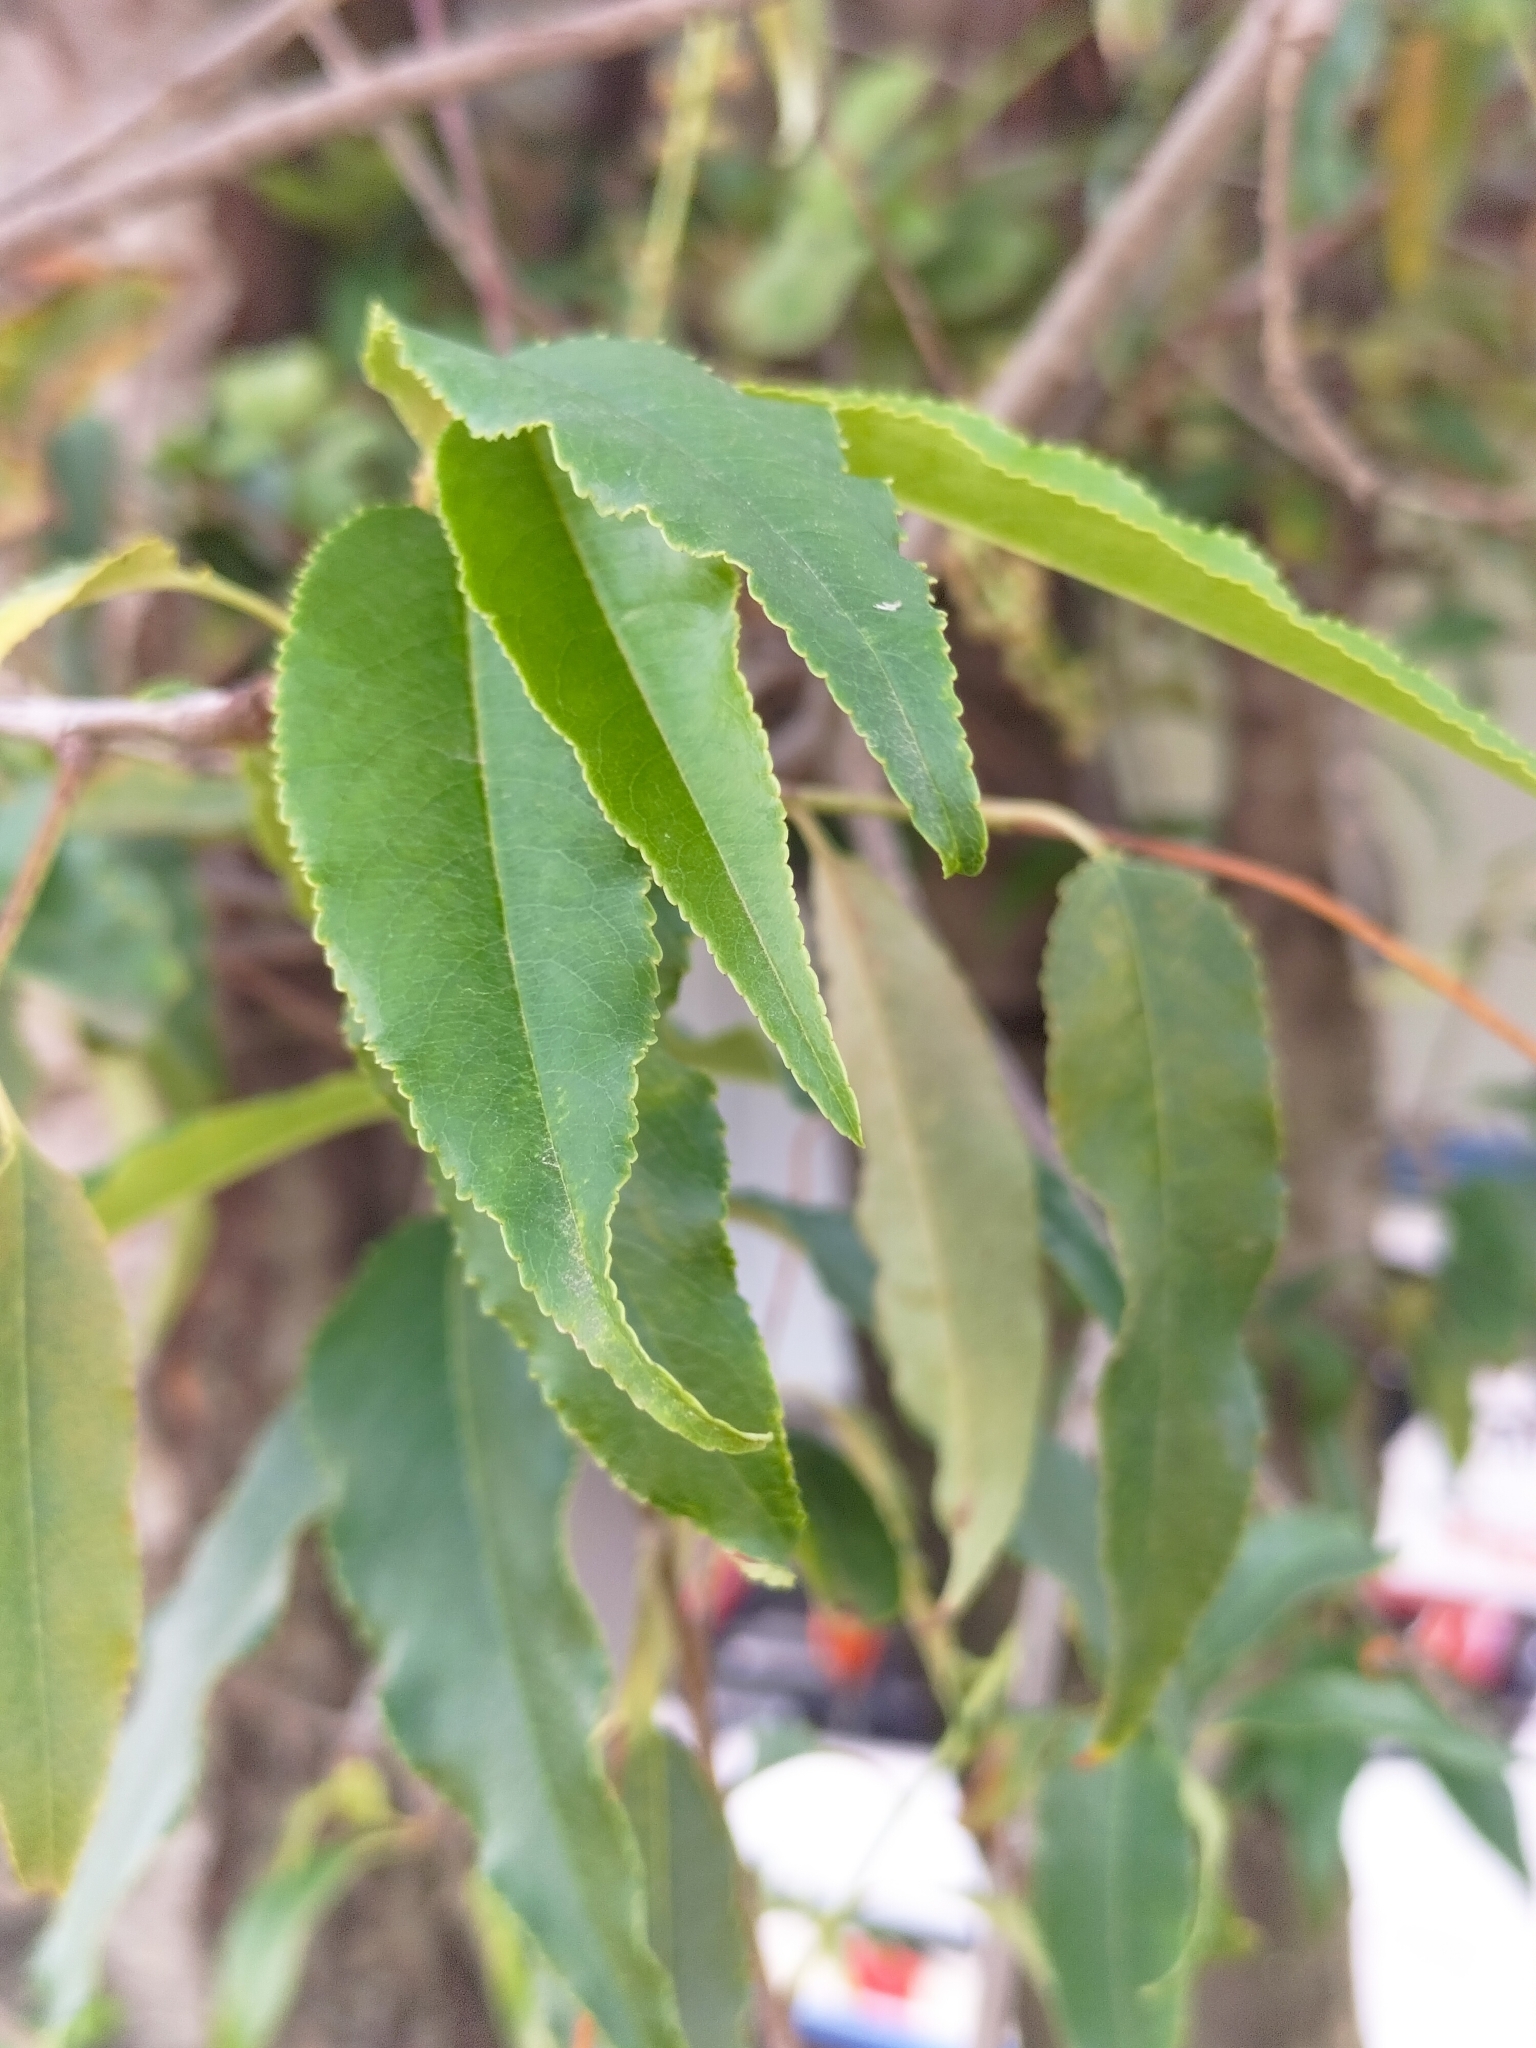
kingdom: Plantae
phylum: Tracheophyta
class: Magnoliopsida
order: Rosales
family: Rosaceae
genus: Prunus
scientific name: Prunus serotina
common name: Black cherry
